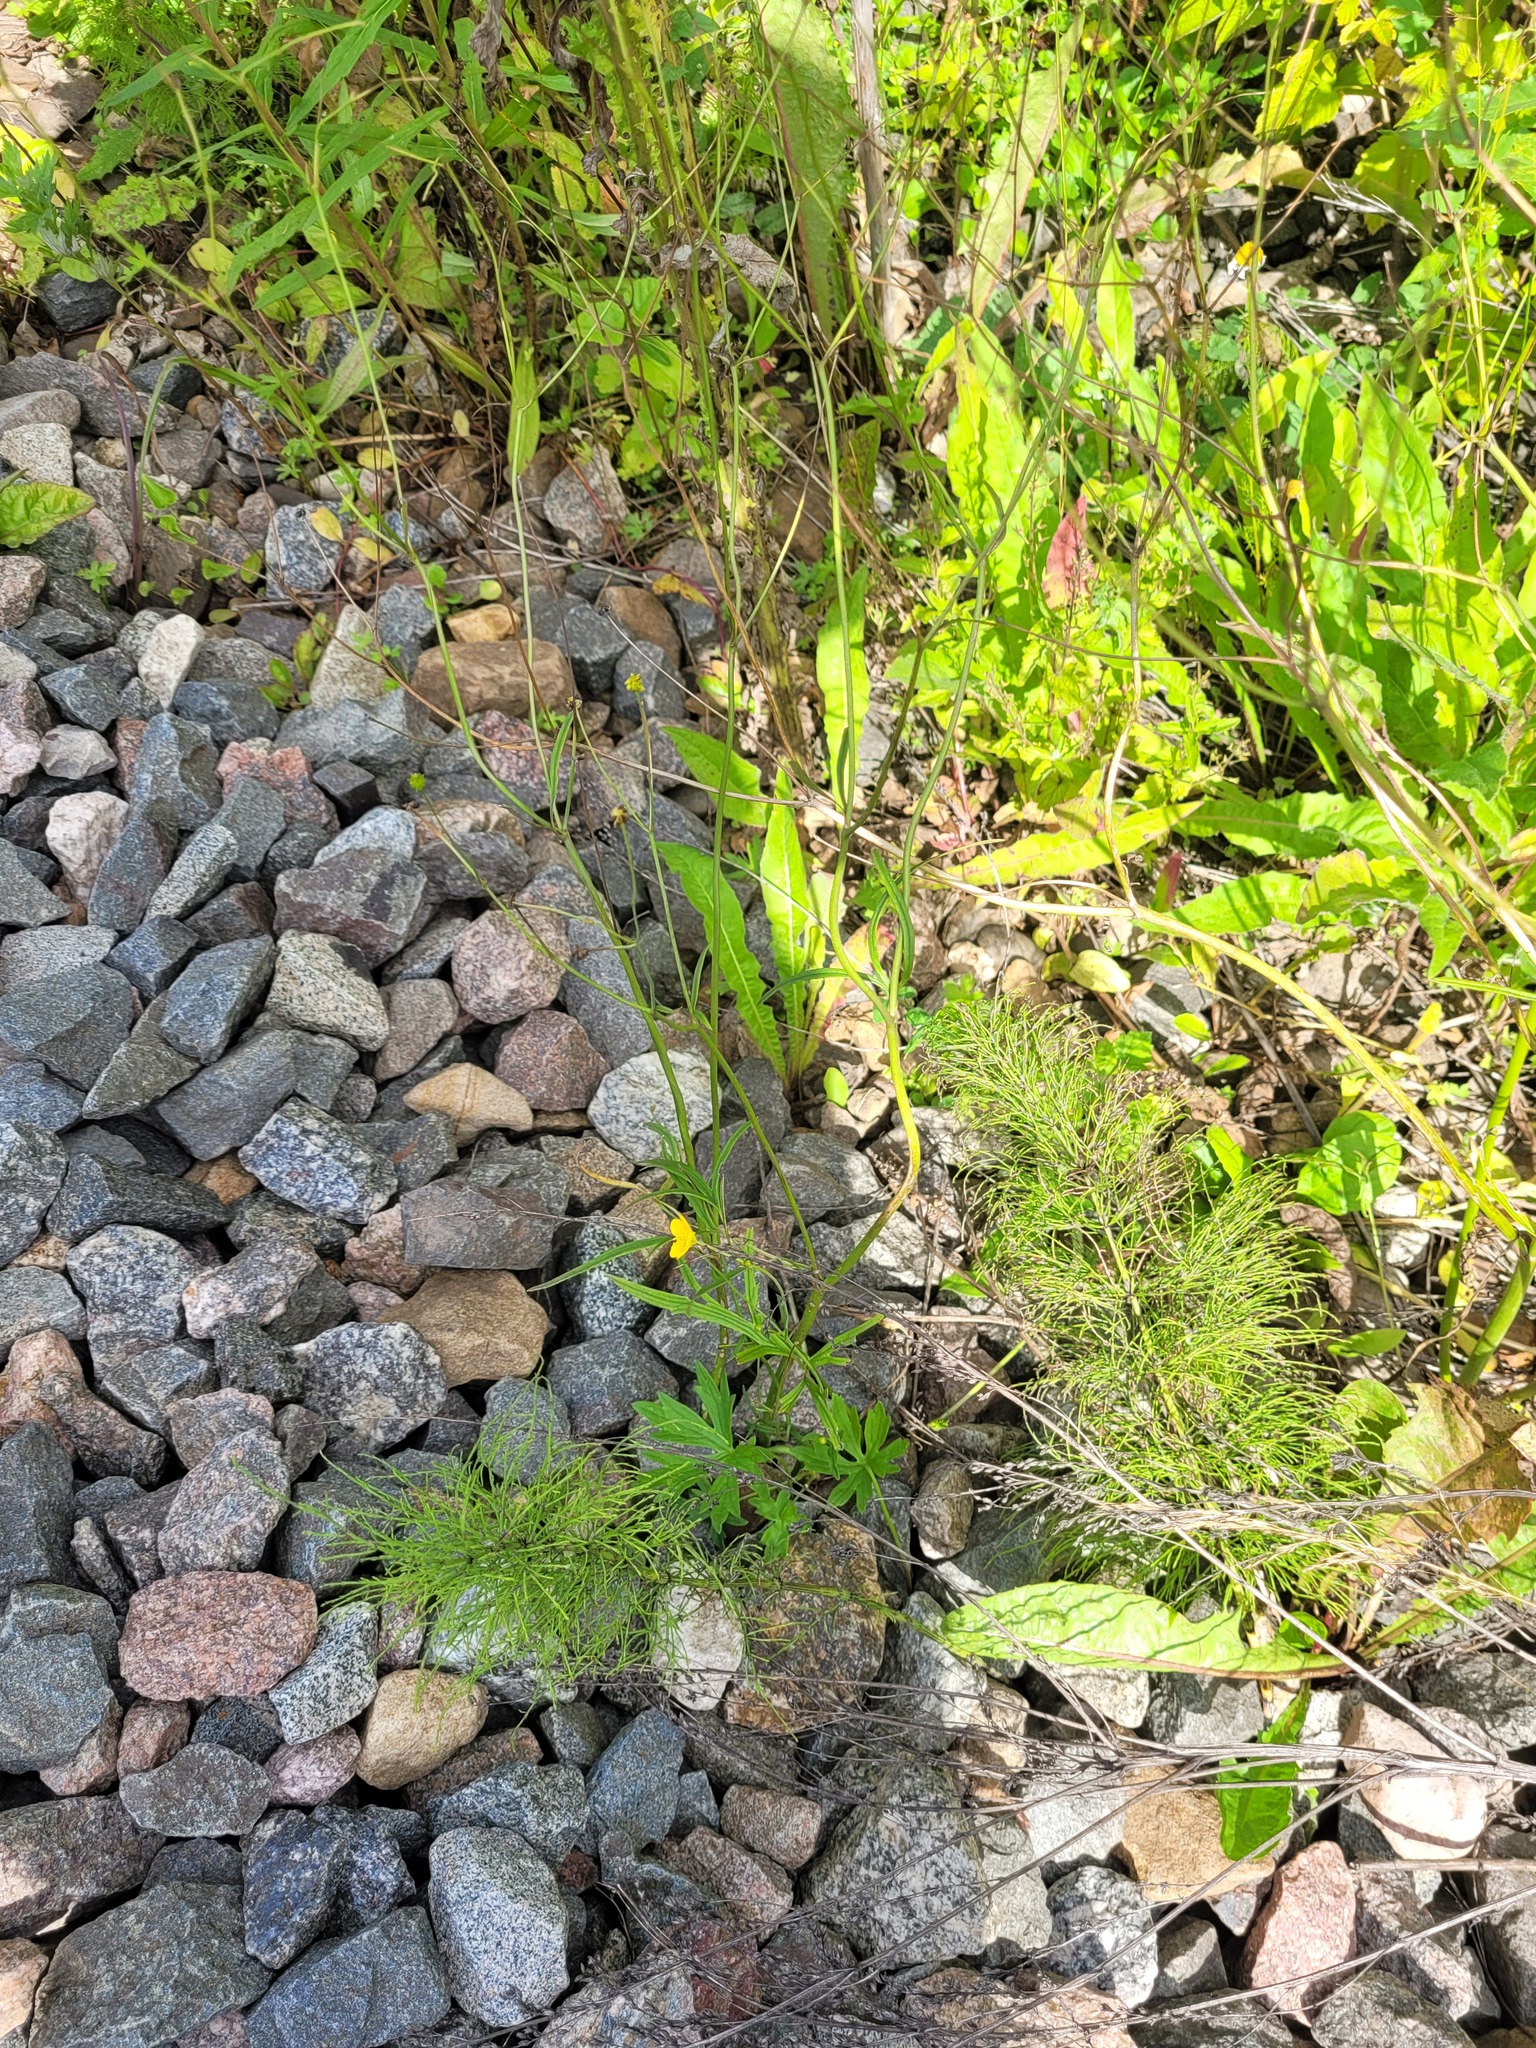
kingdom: Plantae
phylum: Tracheophyta
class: Magnoliopsida
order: Ranunculales
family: Ranunculaceae
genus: Ranunculus
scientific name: Ranunculus acris
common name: Meadow buttercup
